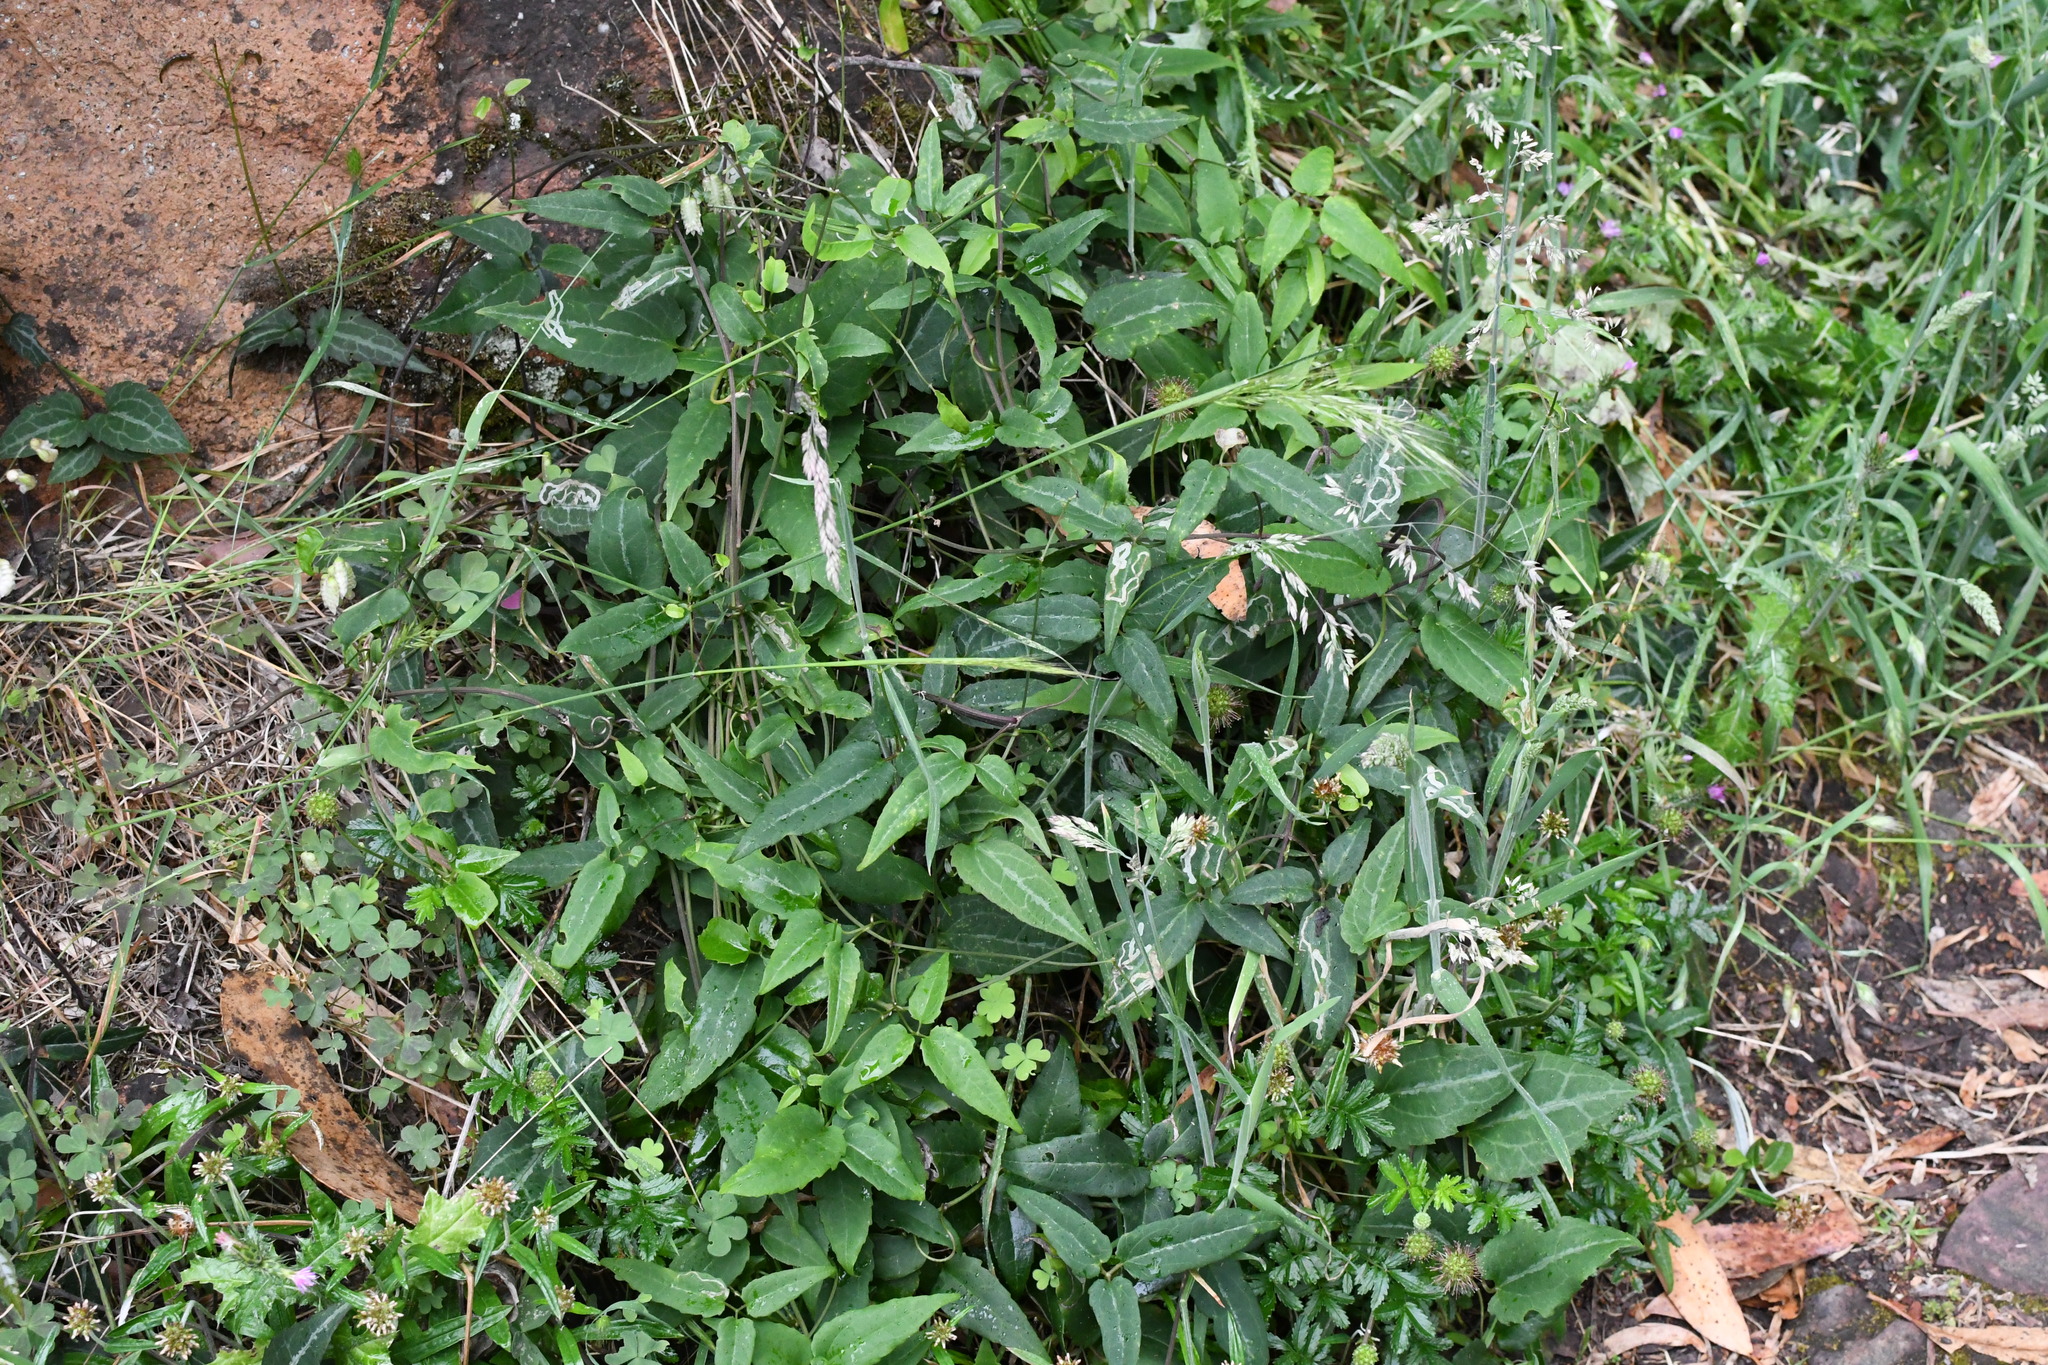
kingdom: Plantae
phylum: Tracheophyta
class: Magnoliopsida
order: Ranunculales
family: Ranunculaceae
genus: Clematis
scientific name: Clematis aristata
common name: Mountain clematis
